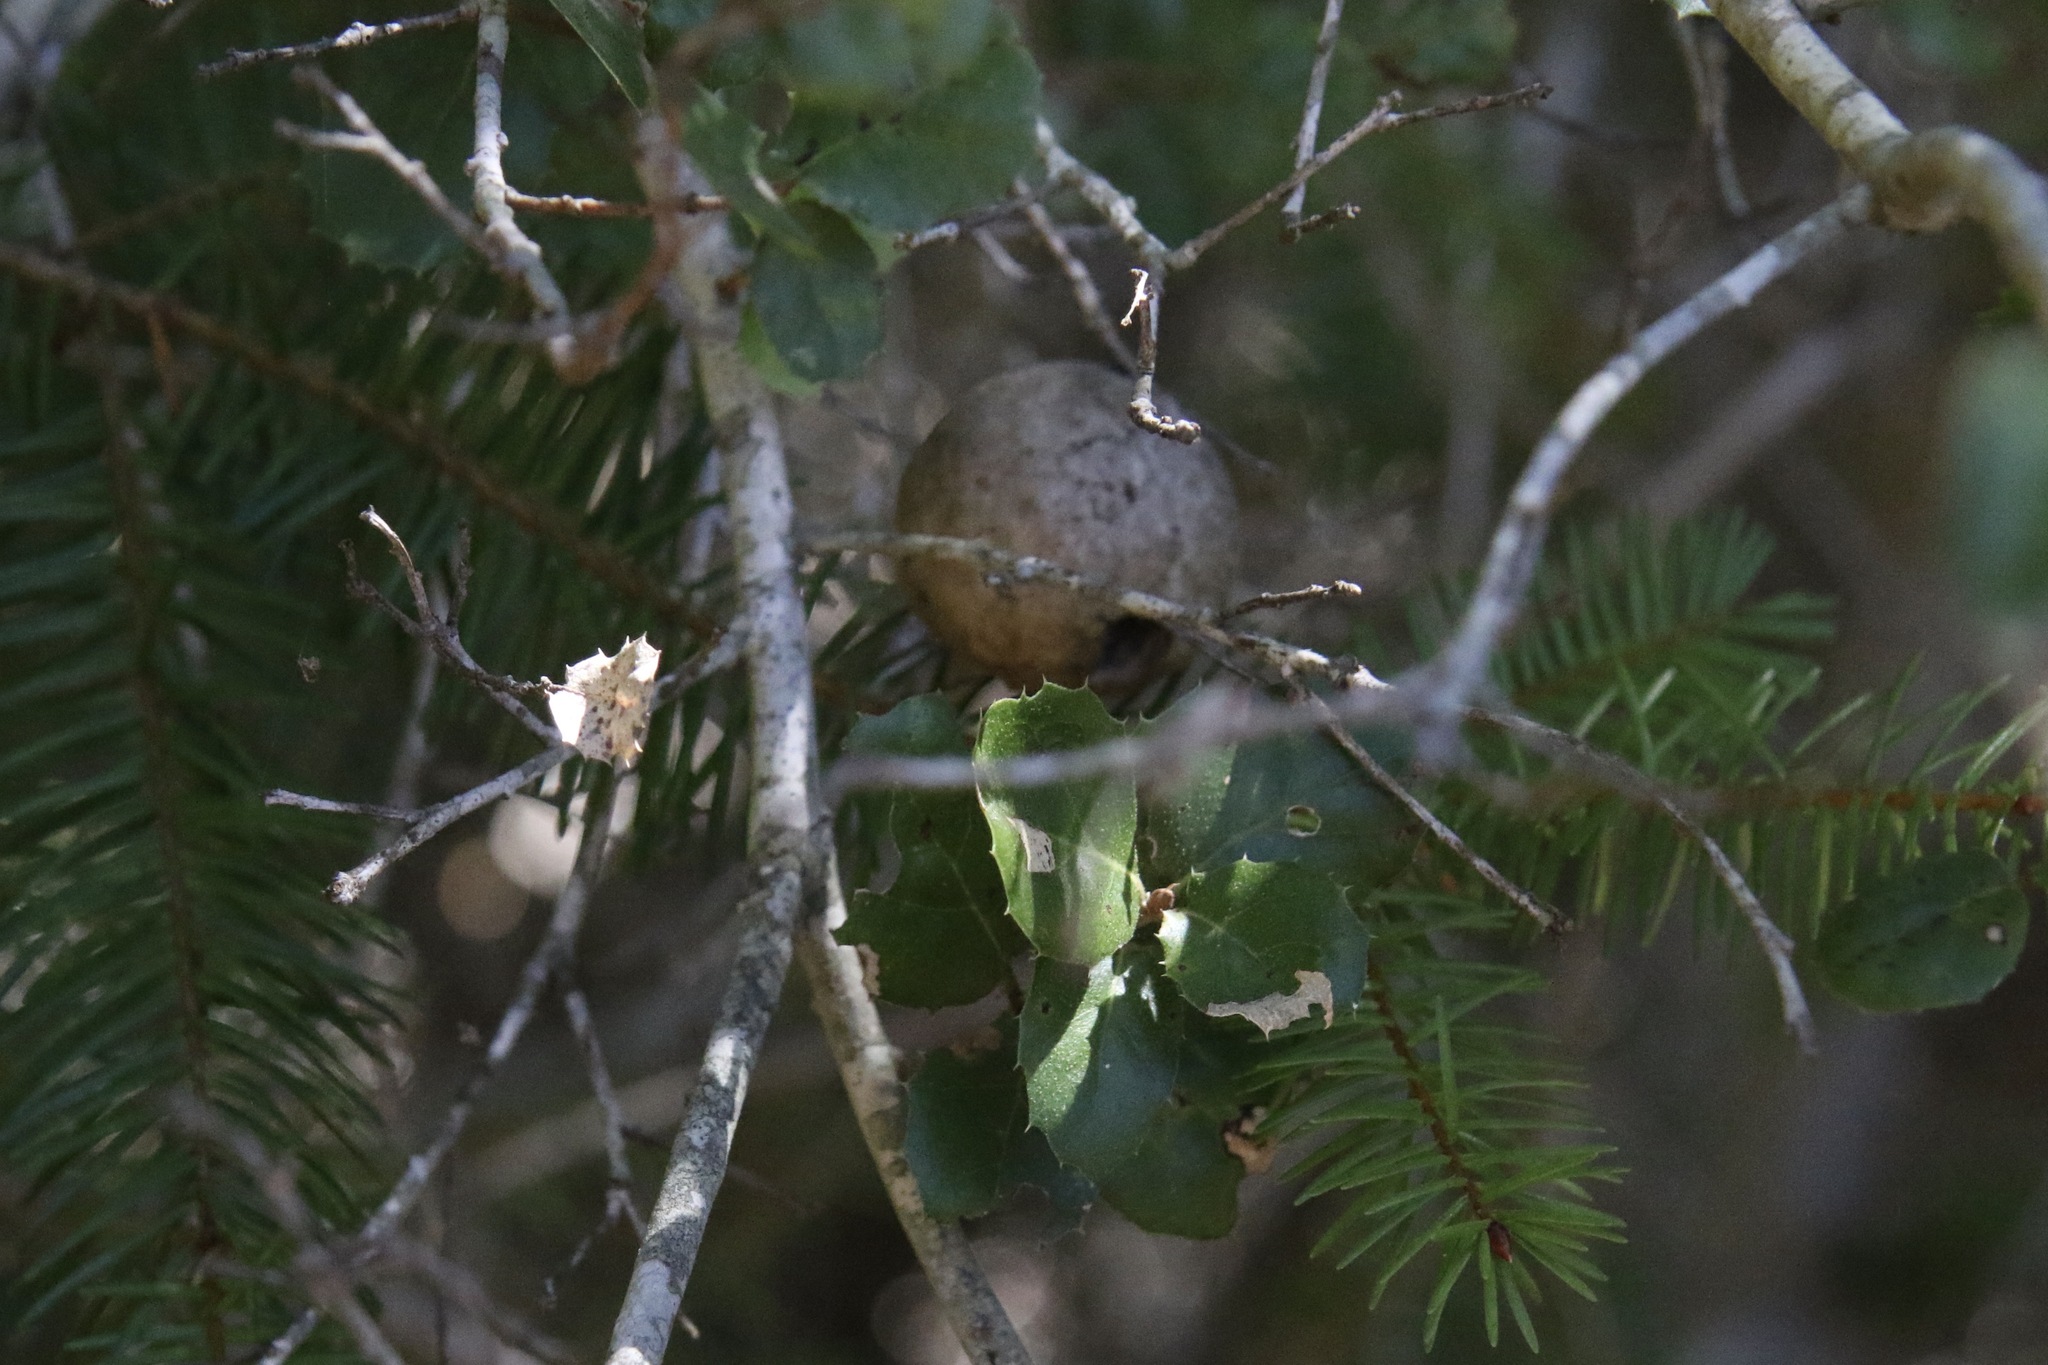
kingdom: Plantae
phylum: Tracheophyta
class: Magnoliopsida
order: Fagales
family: Fagaceae
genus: Quercus
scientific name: Quercus agrifolia
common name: California live oak
